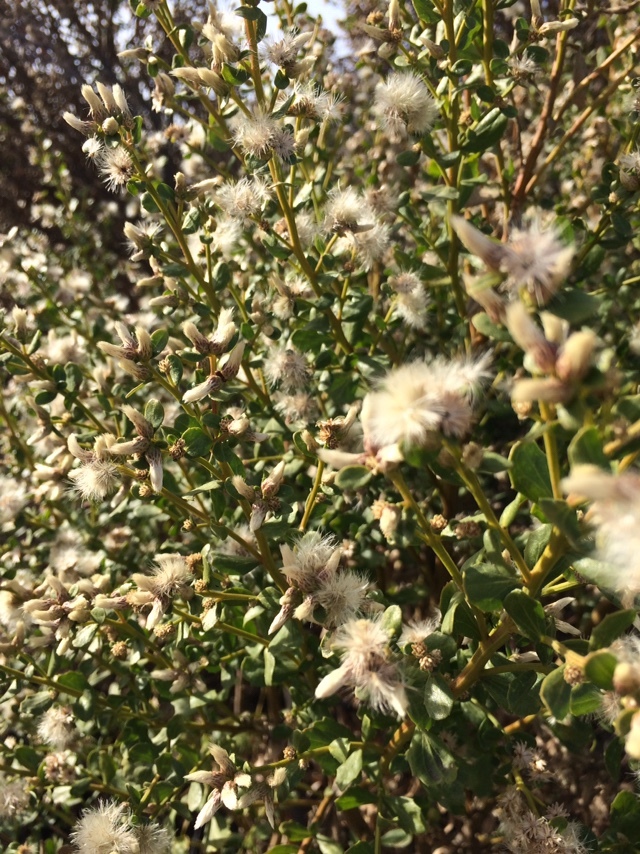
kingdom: Plantae
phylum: Tracheophyta
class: Magnoliopsida
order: Asterales
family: Asteraceae
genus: Baccharis
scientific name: Baccharis pilularis
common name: Coyotebrush
